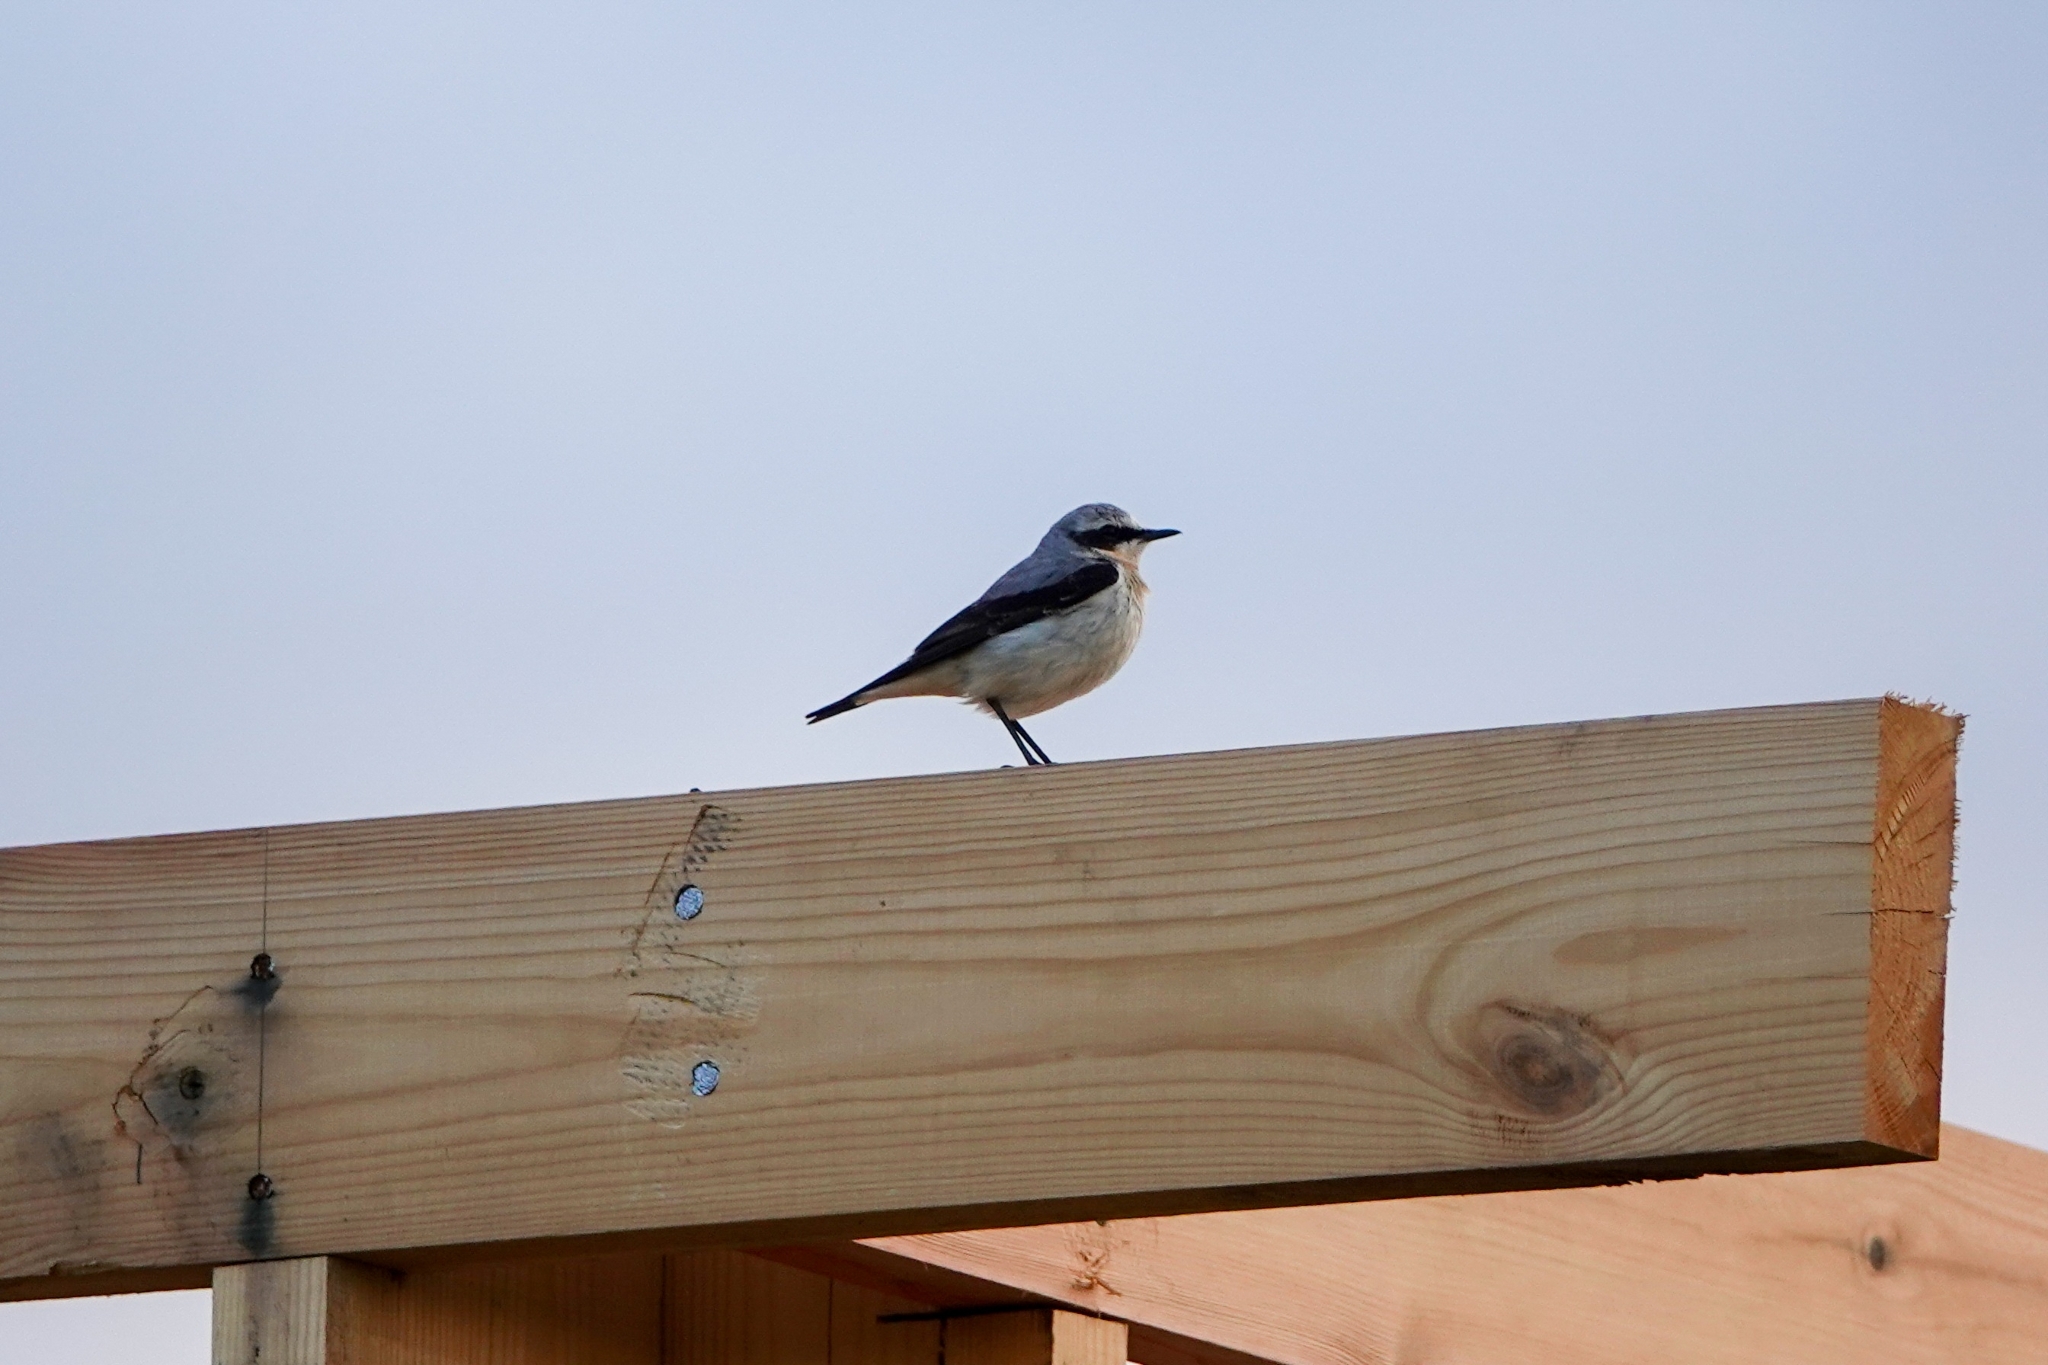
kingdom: Animalia
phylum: Chordata
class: Aves
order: Passeriformes
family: Muscicapidae
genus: Oenanthe
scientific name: Oenanthe oenanthe
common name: Northern wheatear
